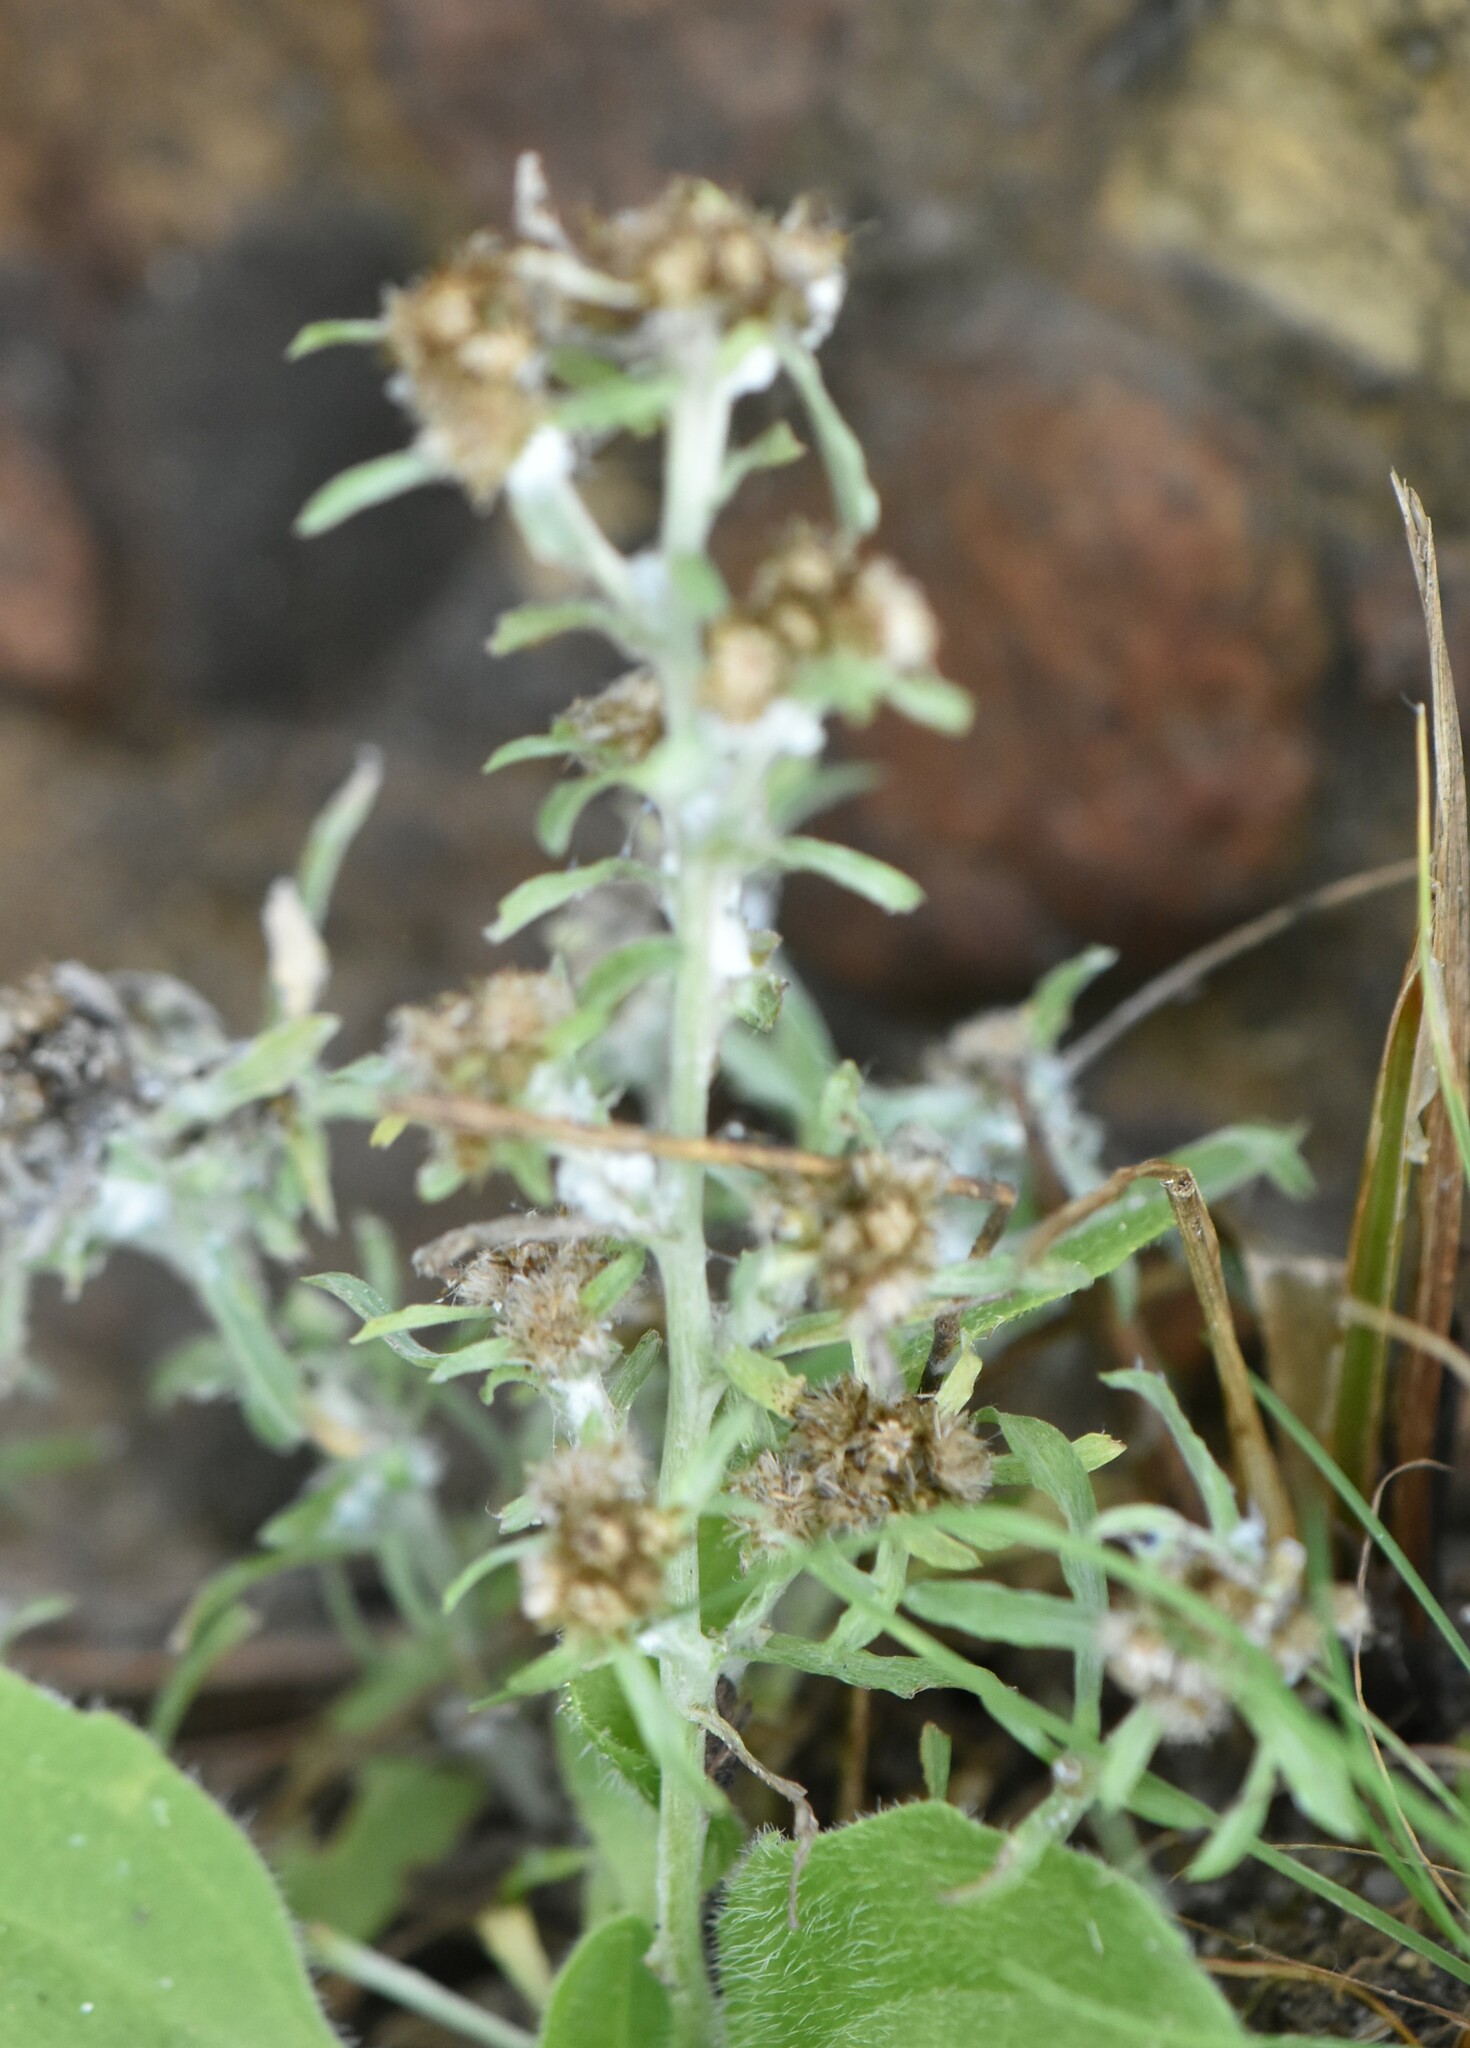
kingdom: Plantae
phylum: Tracheophyta
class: Magnoliopsida
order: Asterales
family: Asteraceae
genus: Gnaphalium
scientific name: Gnaphalium uliginosum
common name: Marsh cudweed
